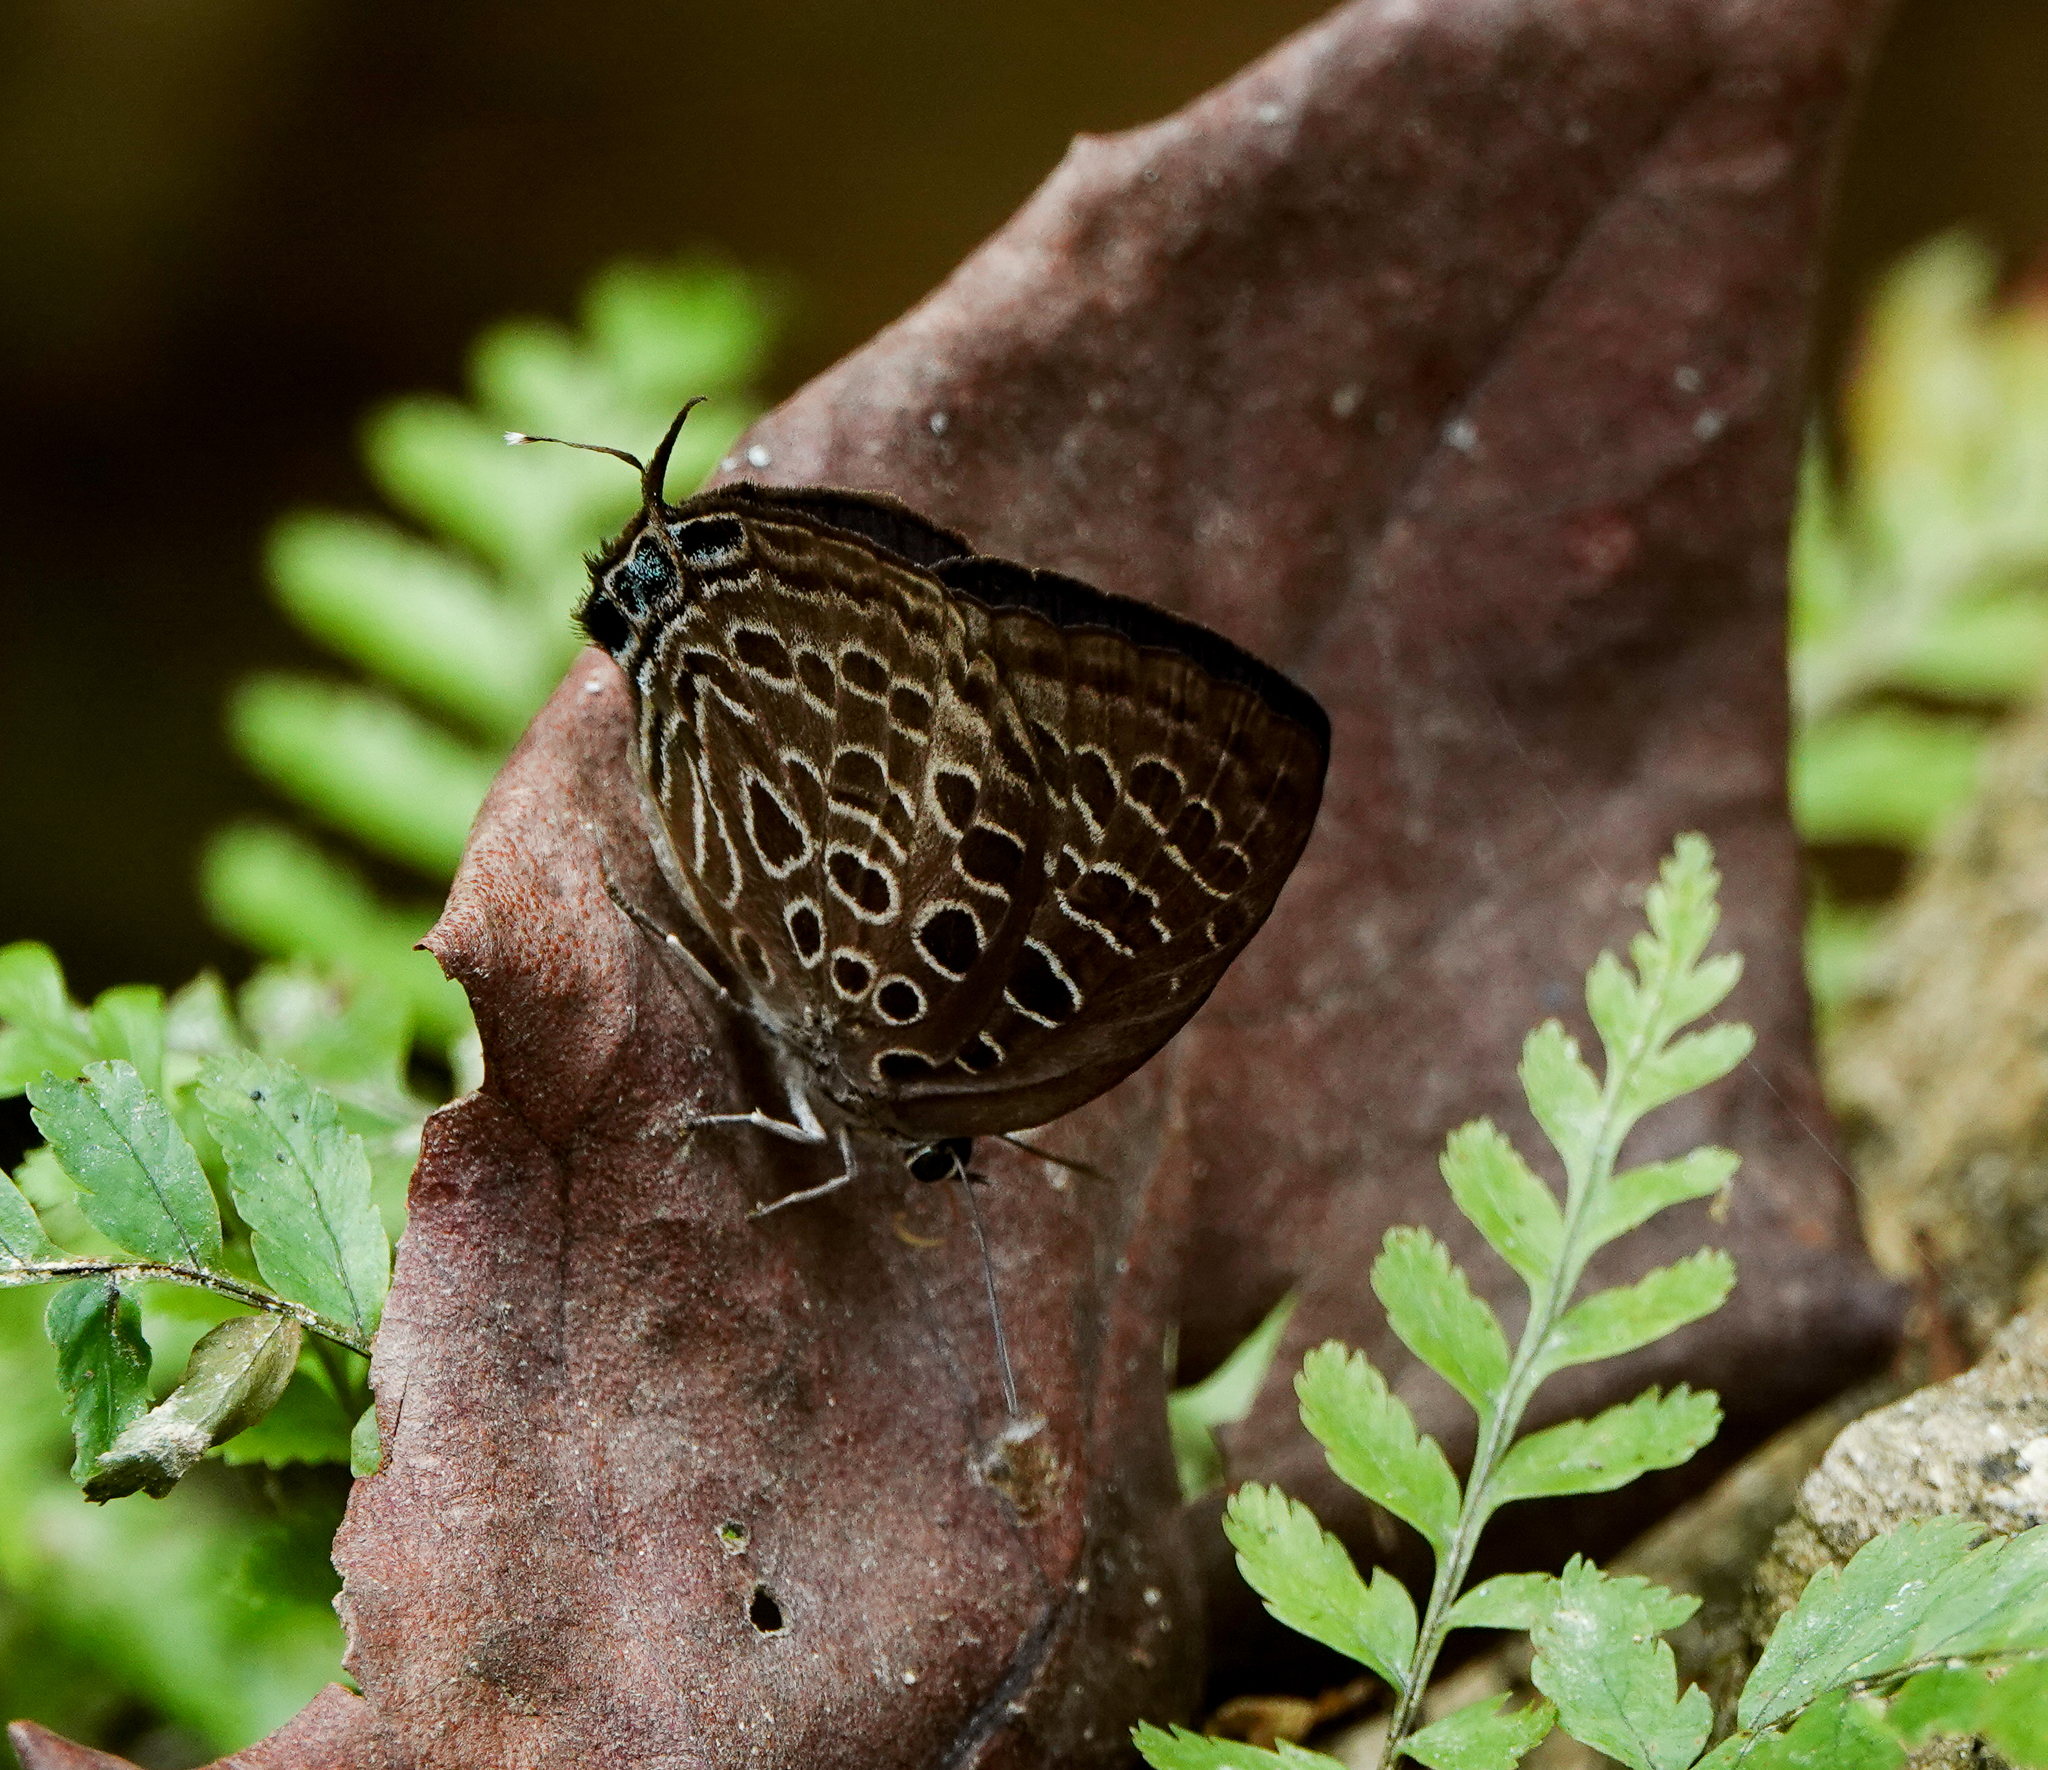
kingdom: Animalia
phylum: Arthropoda
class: Insecta
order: Lepidoptera
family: Lycaenidae
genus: Arhopala
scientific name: Arhopala dispar
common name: Frosted oakblue
